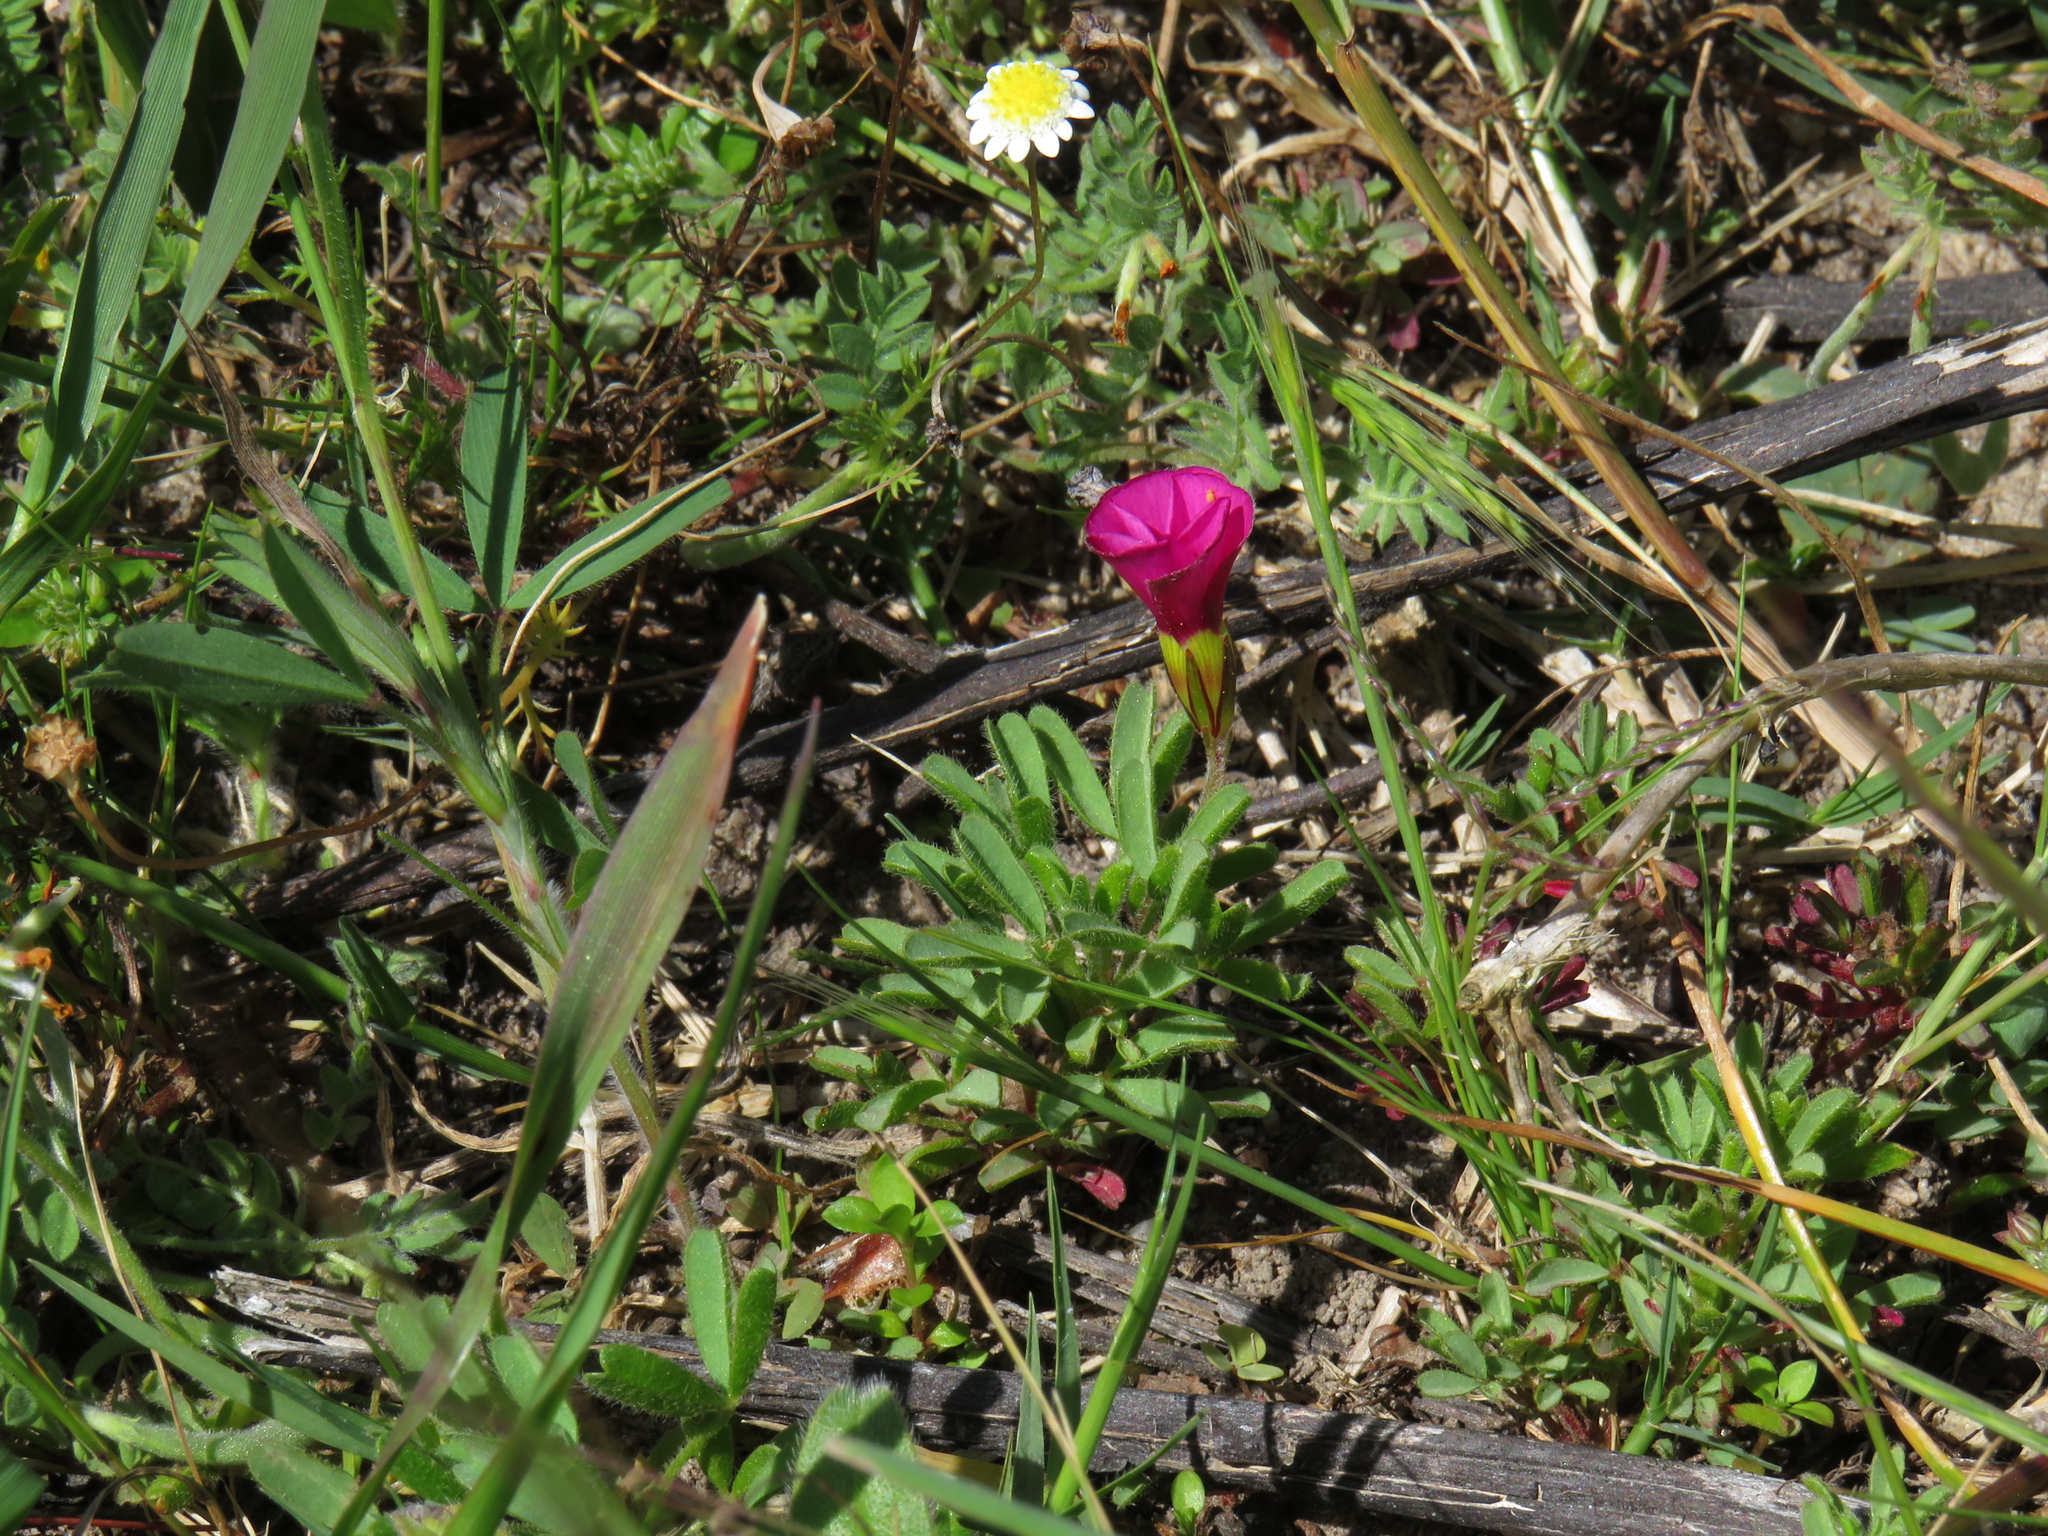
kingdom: Plantae
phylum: Tracheophyta
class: Magnoliopsida
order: Oxalidales
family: Oxalidaceae
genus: Oxalis
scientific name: Oxalis glabra
